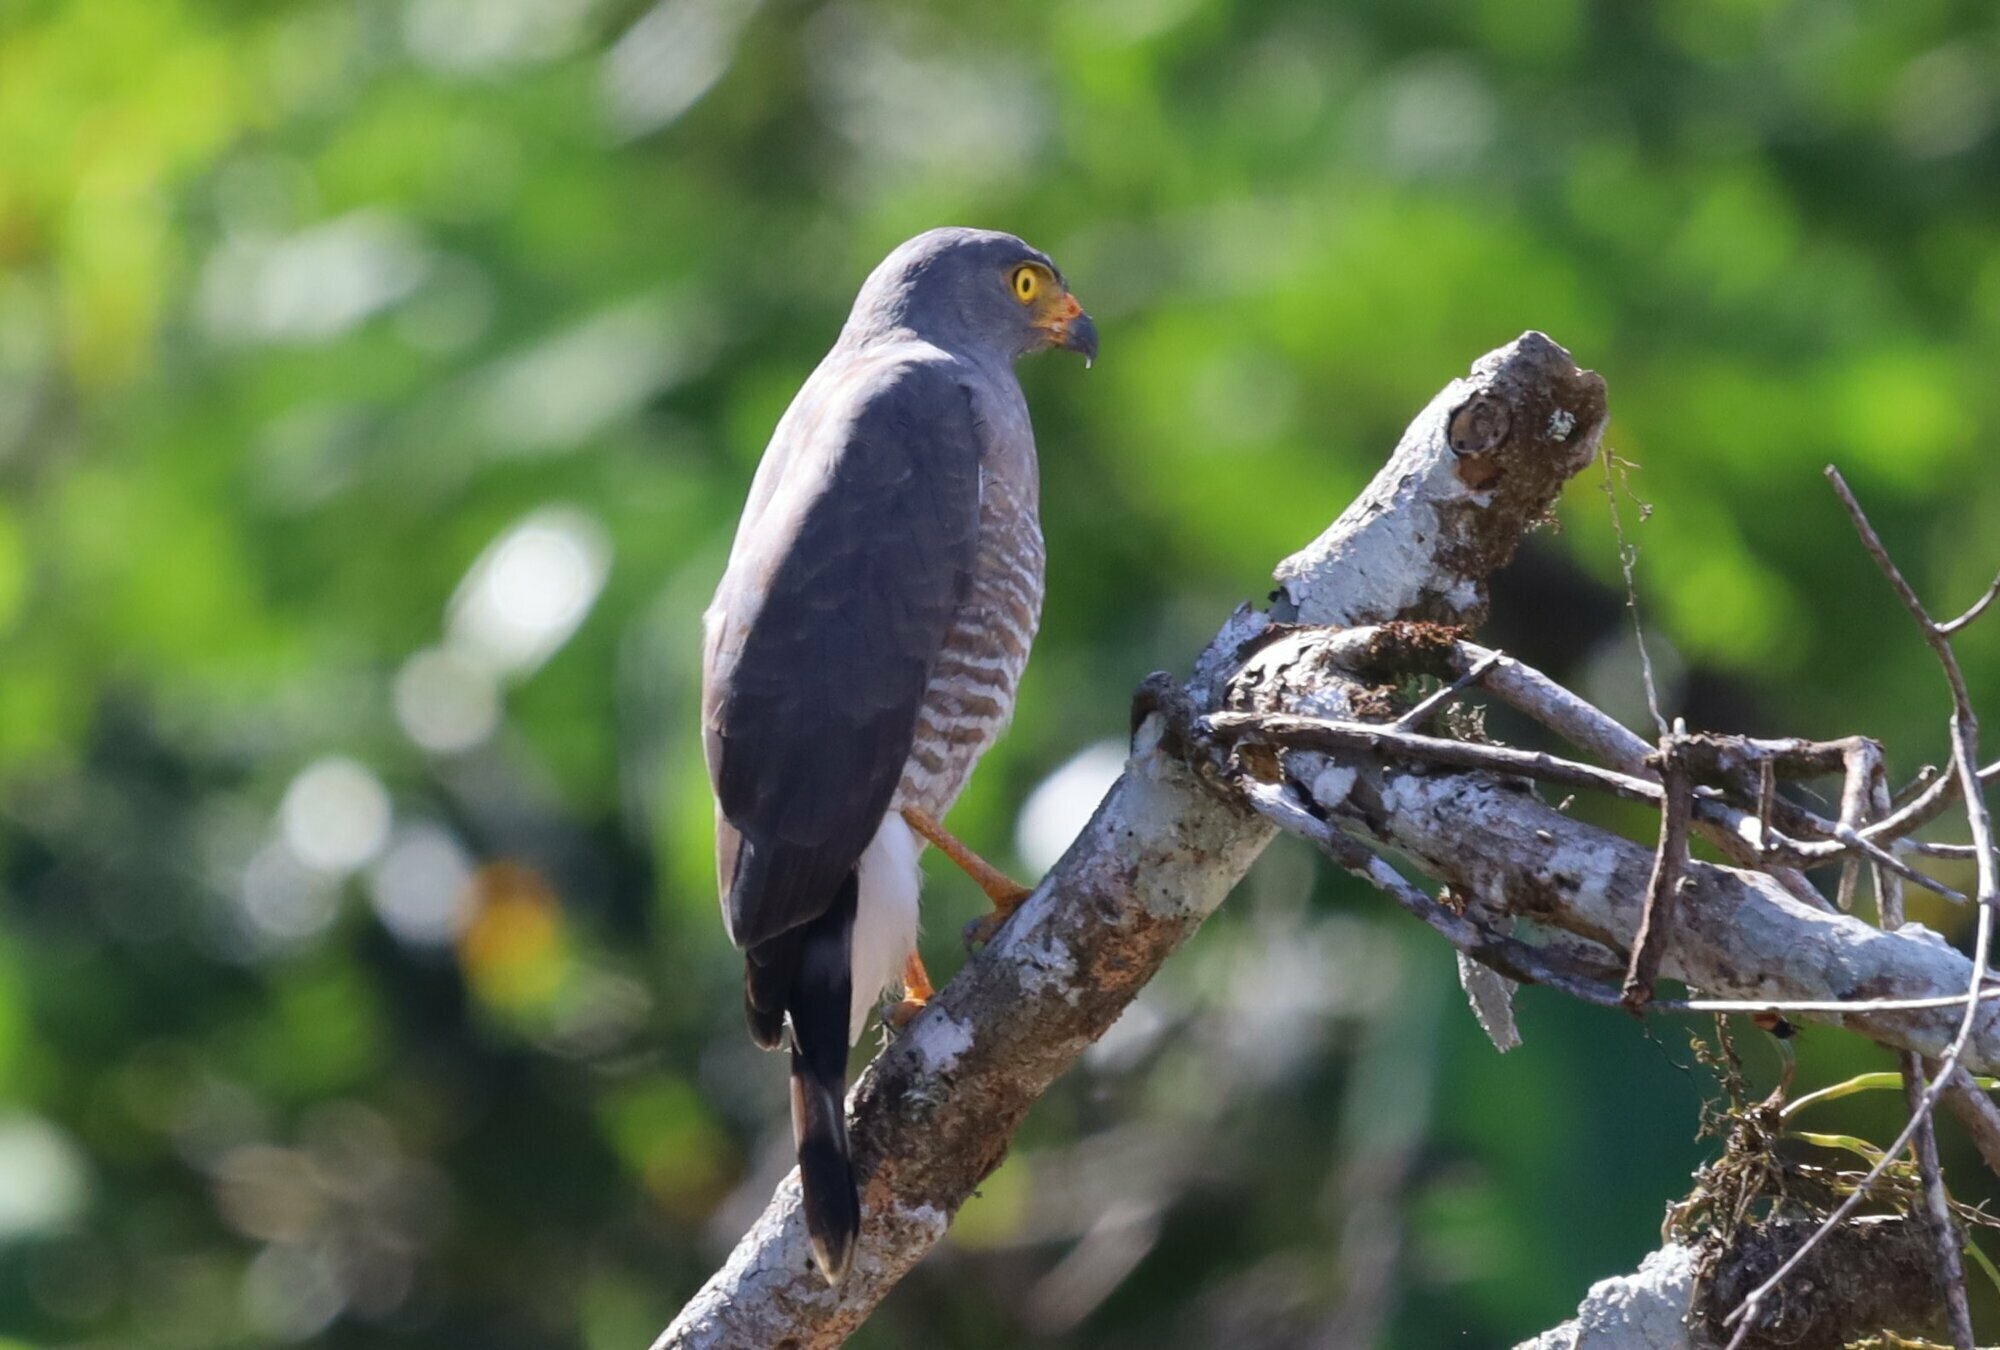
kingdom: Animalia
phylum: Chordata
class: Aves
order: Accipitriformes
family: Accipitridae
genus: Rupornis
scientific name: Rupornis magnirostris
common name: Roadside hawk
